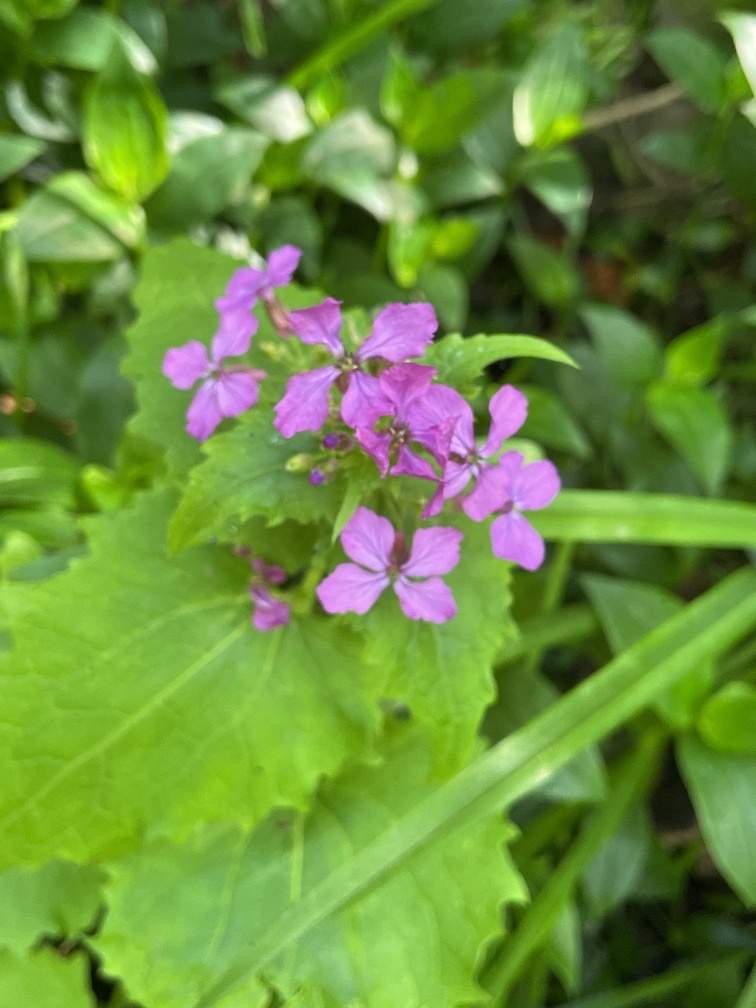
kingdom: Plantae
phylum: Tracheophyta
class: Magnoliopsida
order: Brassicales
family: Brassicaceae
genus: Lunaria
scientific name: Lunaria annua
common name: Honesty
